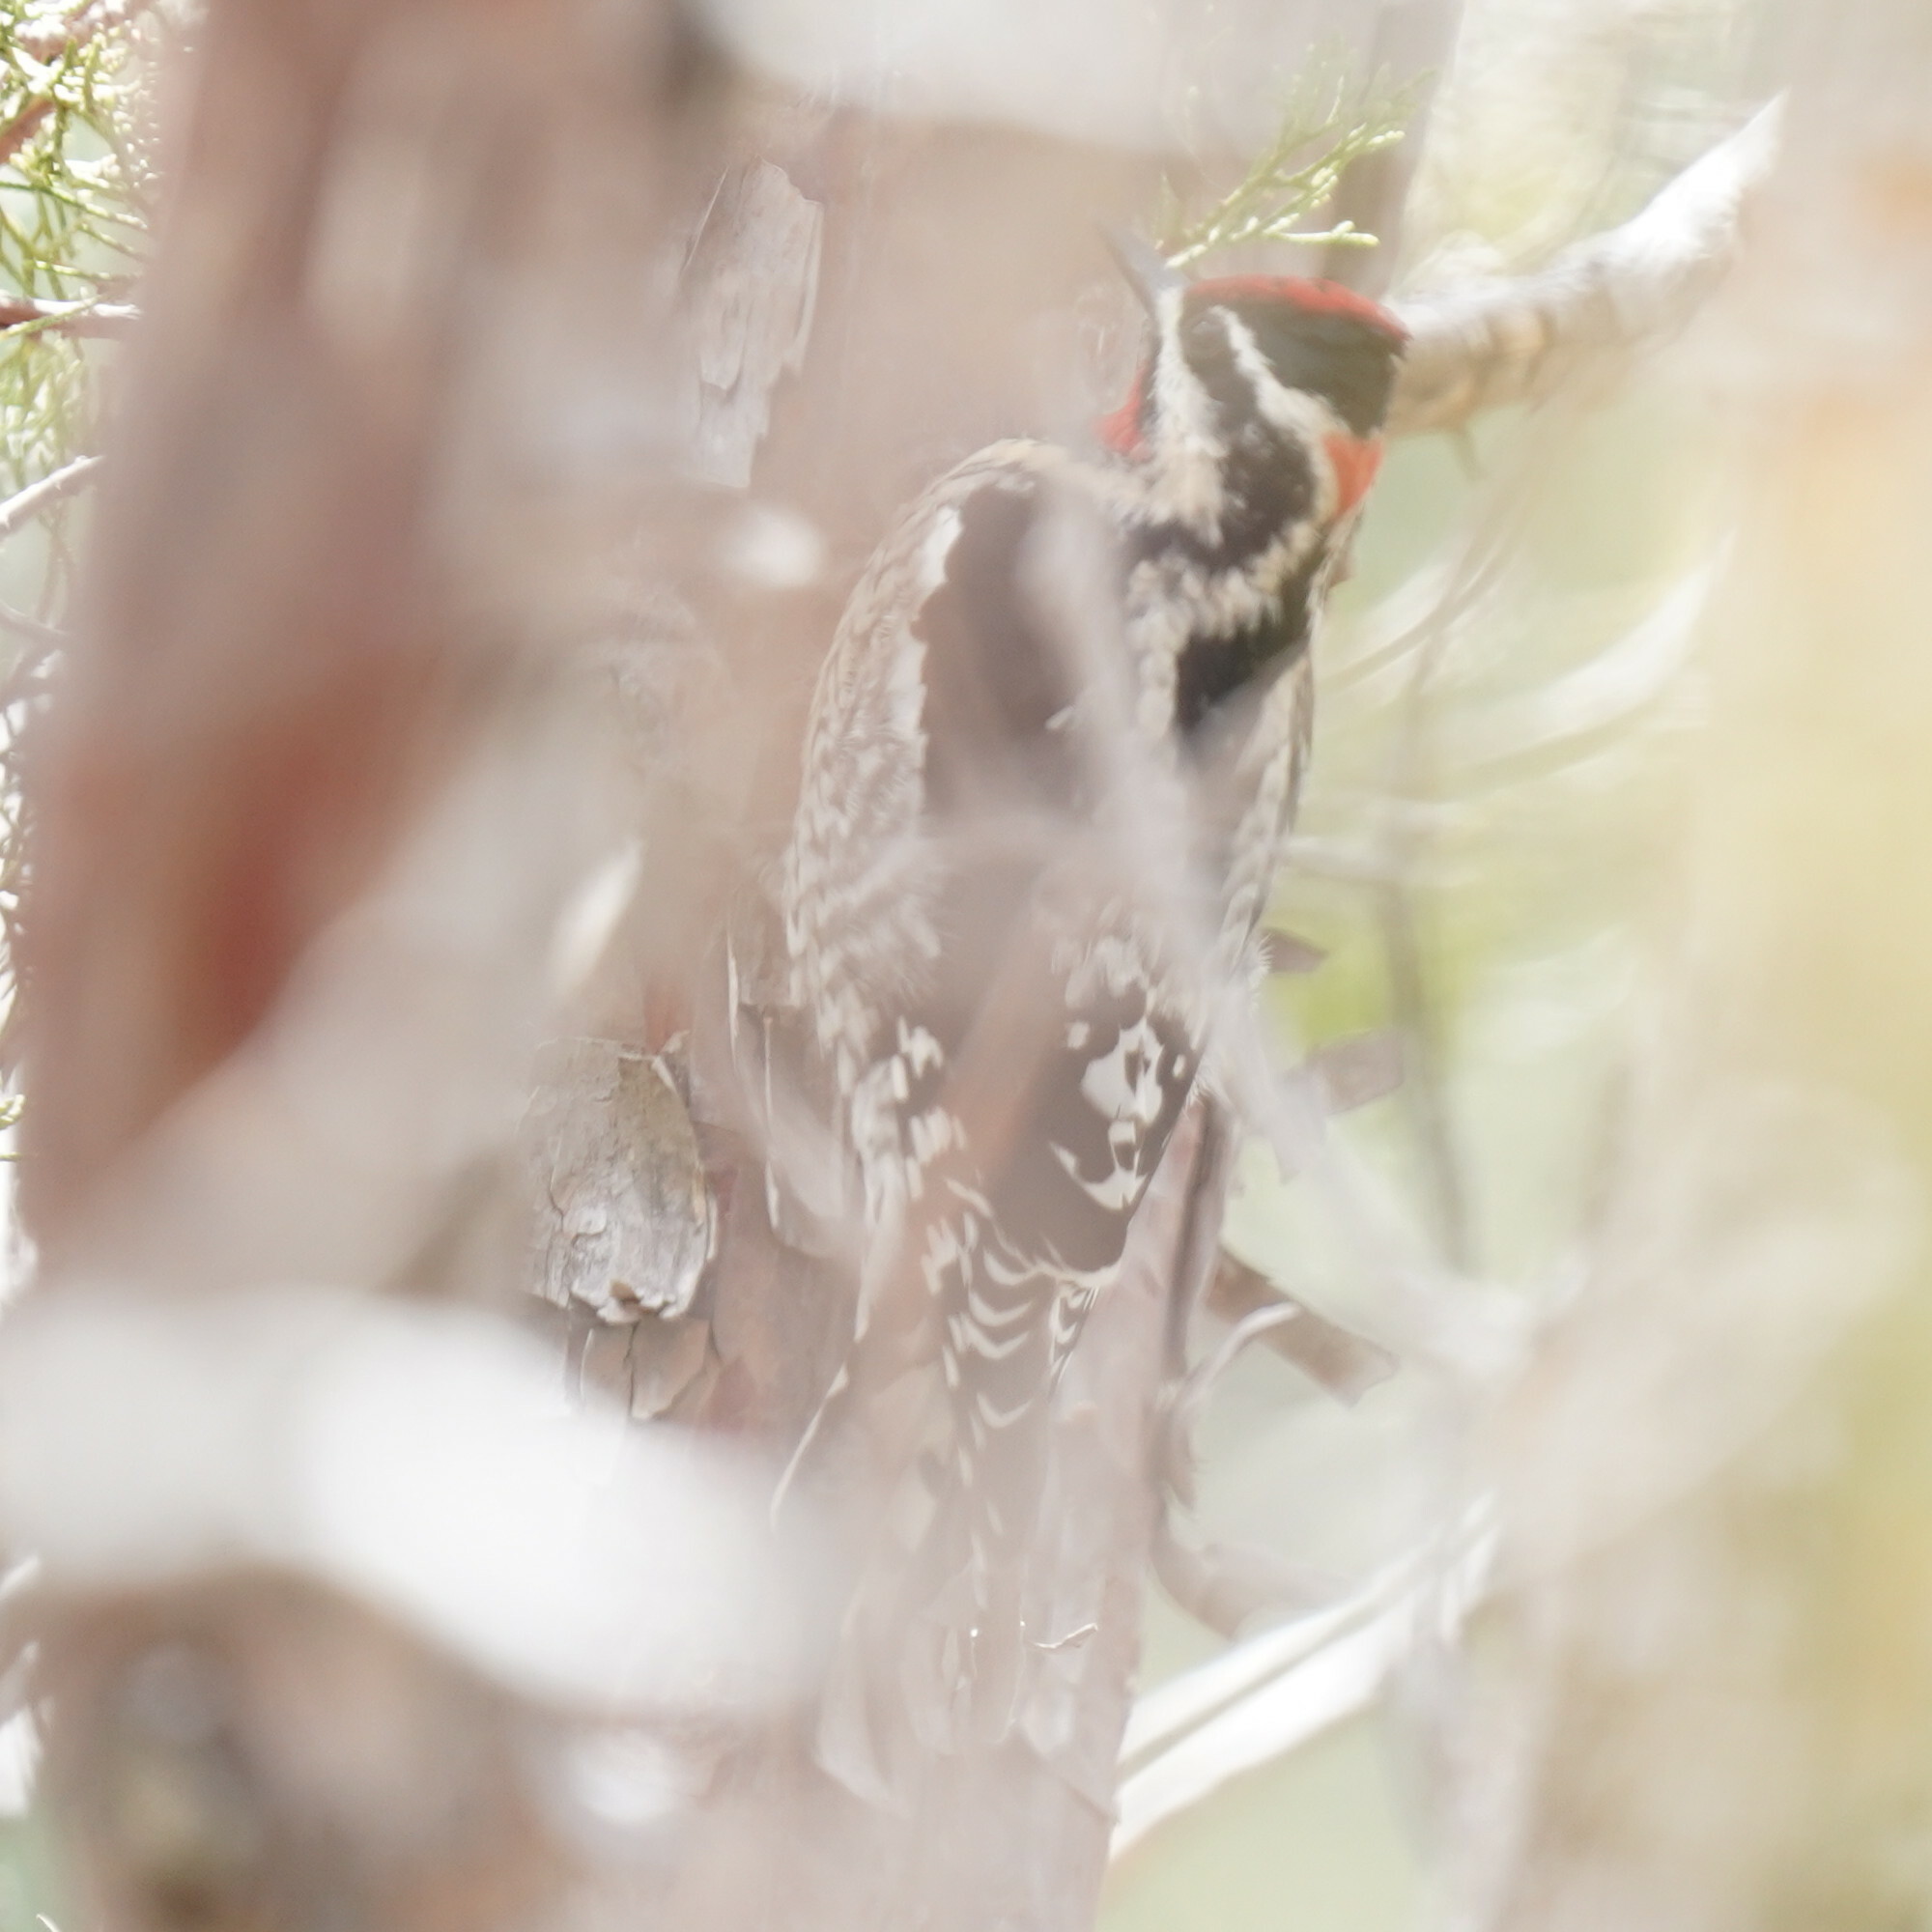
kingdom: Animalia
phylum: Chordata
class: Aves
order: Piciformes
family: Picidae
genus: Sphyrapicus
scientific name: Sphyrapicus nuchalis
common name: Red-naped sapsucker
